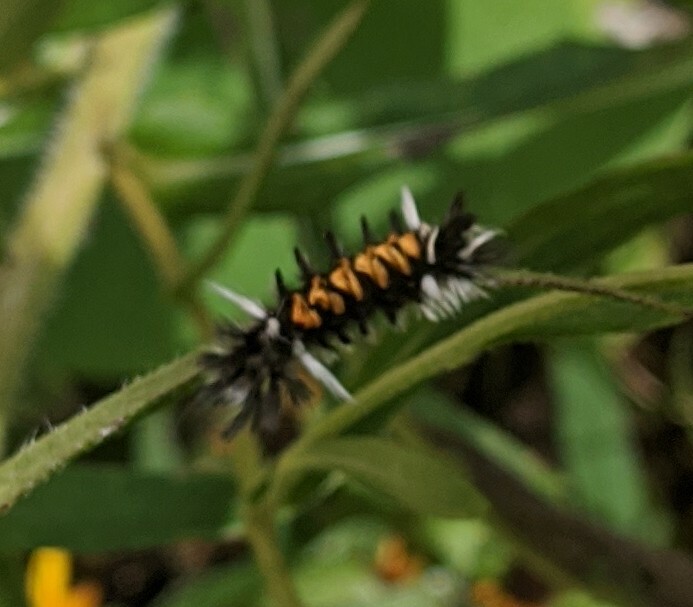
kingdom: Animalia
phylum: Arthropoda
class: Insecta
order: Lepidoptera
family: Erebidae
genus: Euchaetes
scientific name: Euchaetes egle
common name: Milkweed tussock moth
